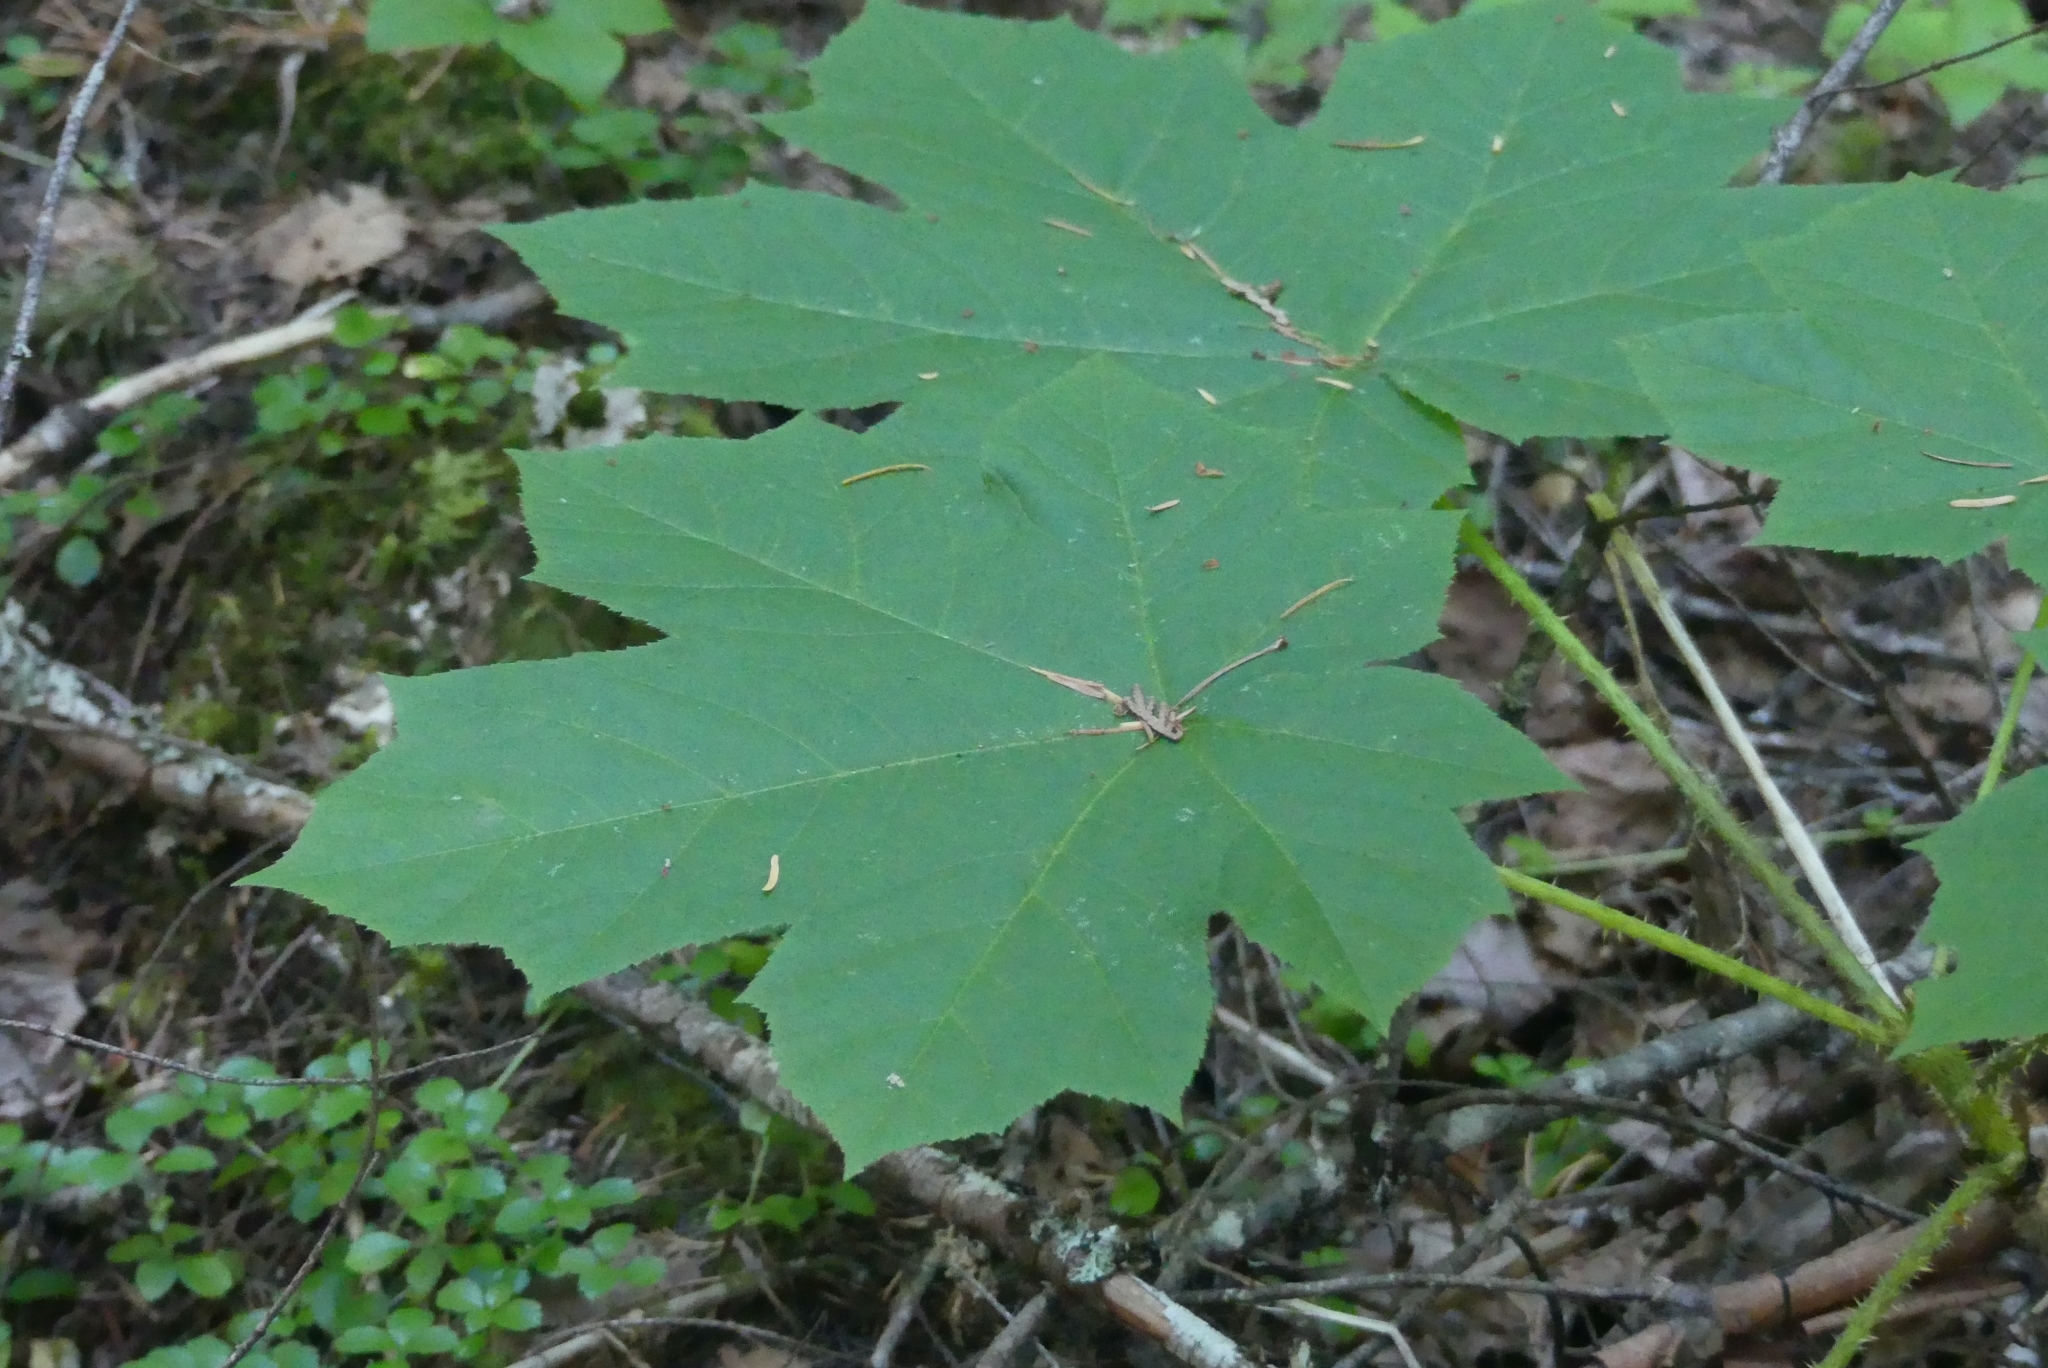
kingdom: Plantae
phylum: Tracheophyta
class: Magnoliopsida
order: Apiales
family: Araliaceae
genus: Oplopanax
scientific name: Oplopanax horridus
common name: Devil's walking-stick
